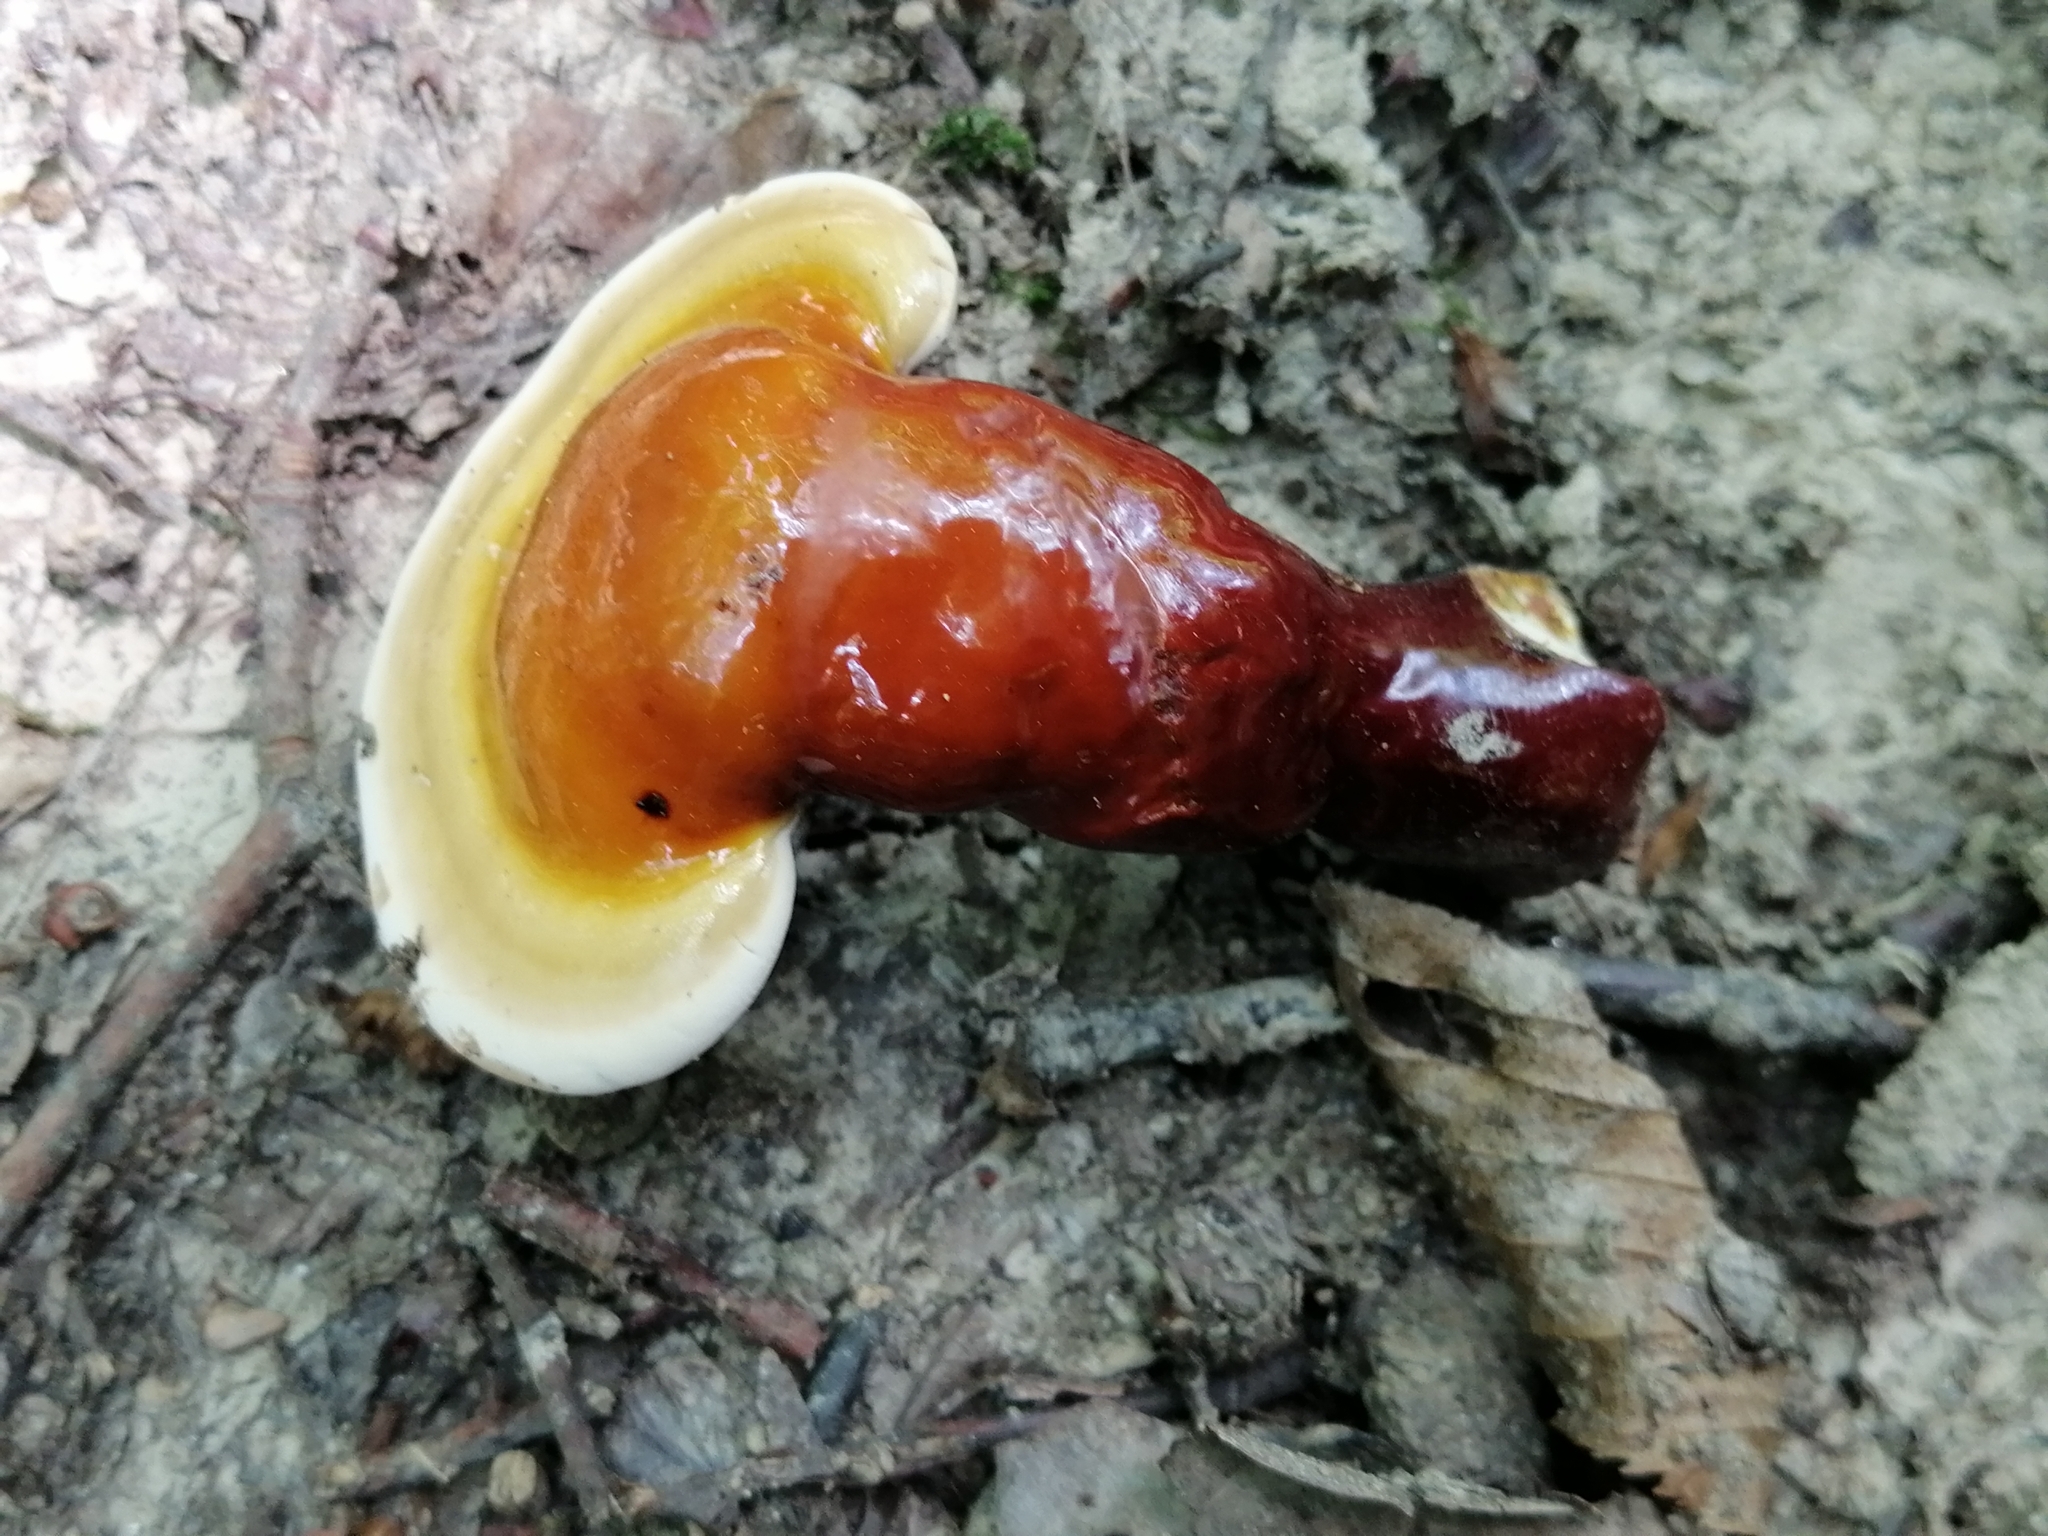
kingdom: Fungi
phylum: Basidiomycota
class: Agaricomycetes
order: Polyporales
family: Polyporaceae
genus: Ganoderma
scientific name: Ganoderma lucidum
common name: Lacquered bracket
